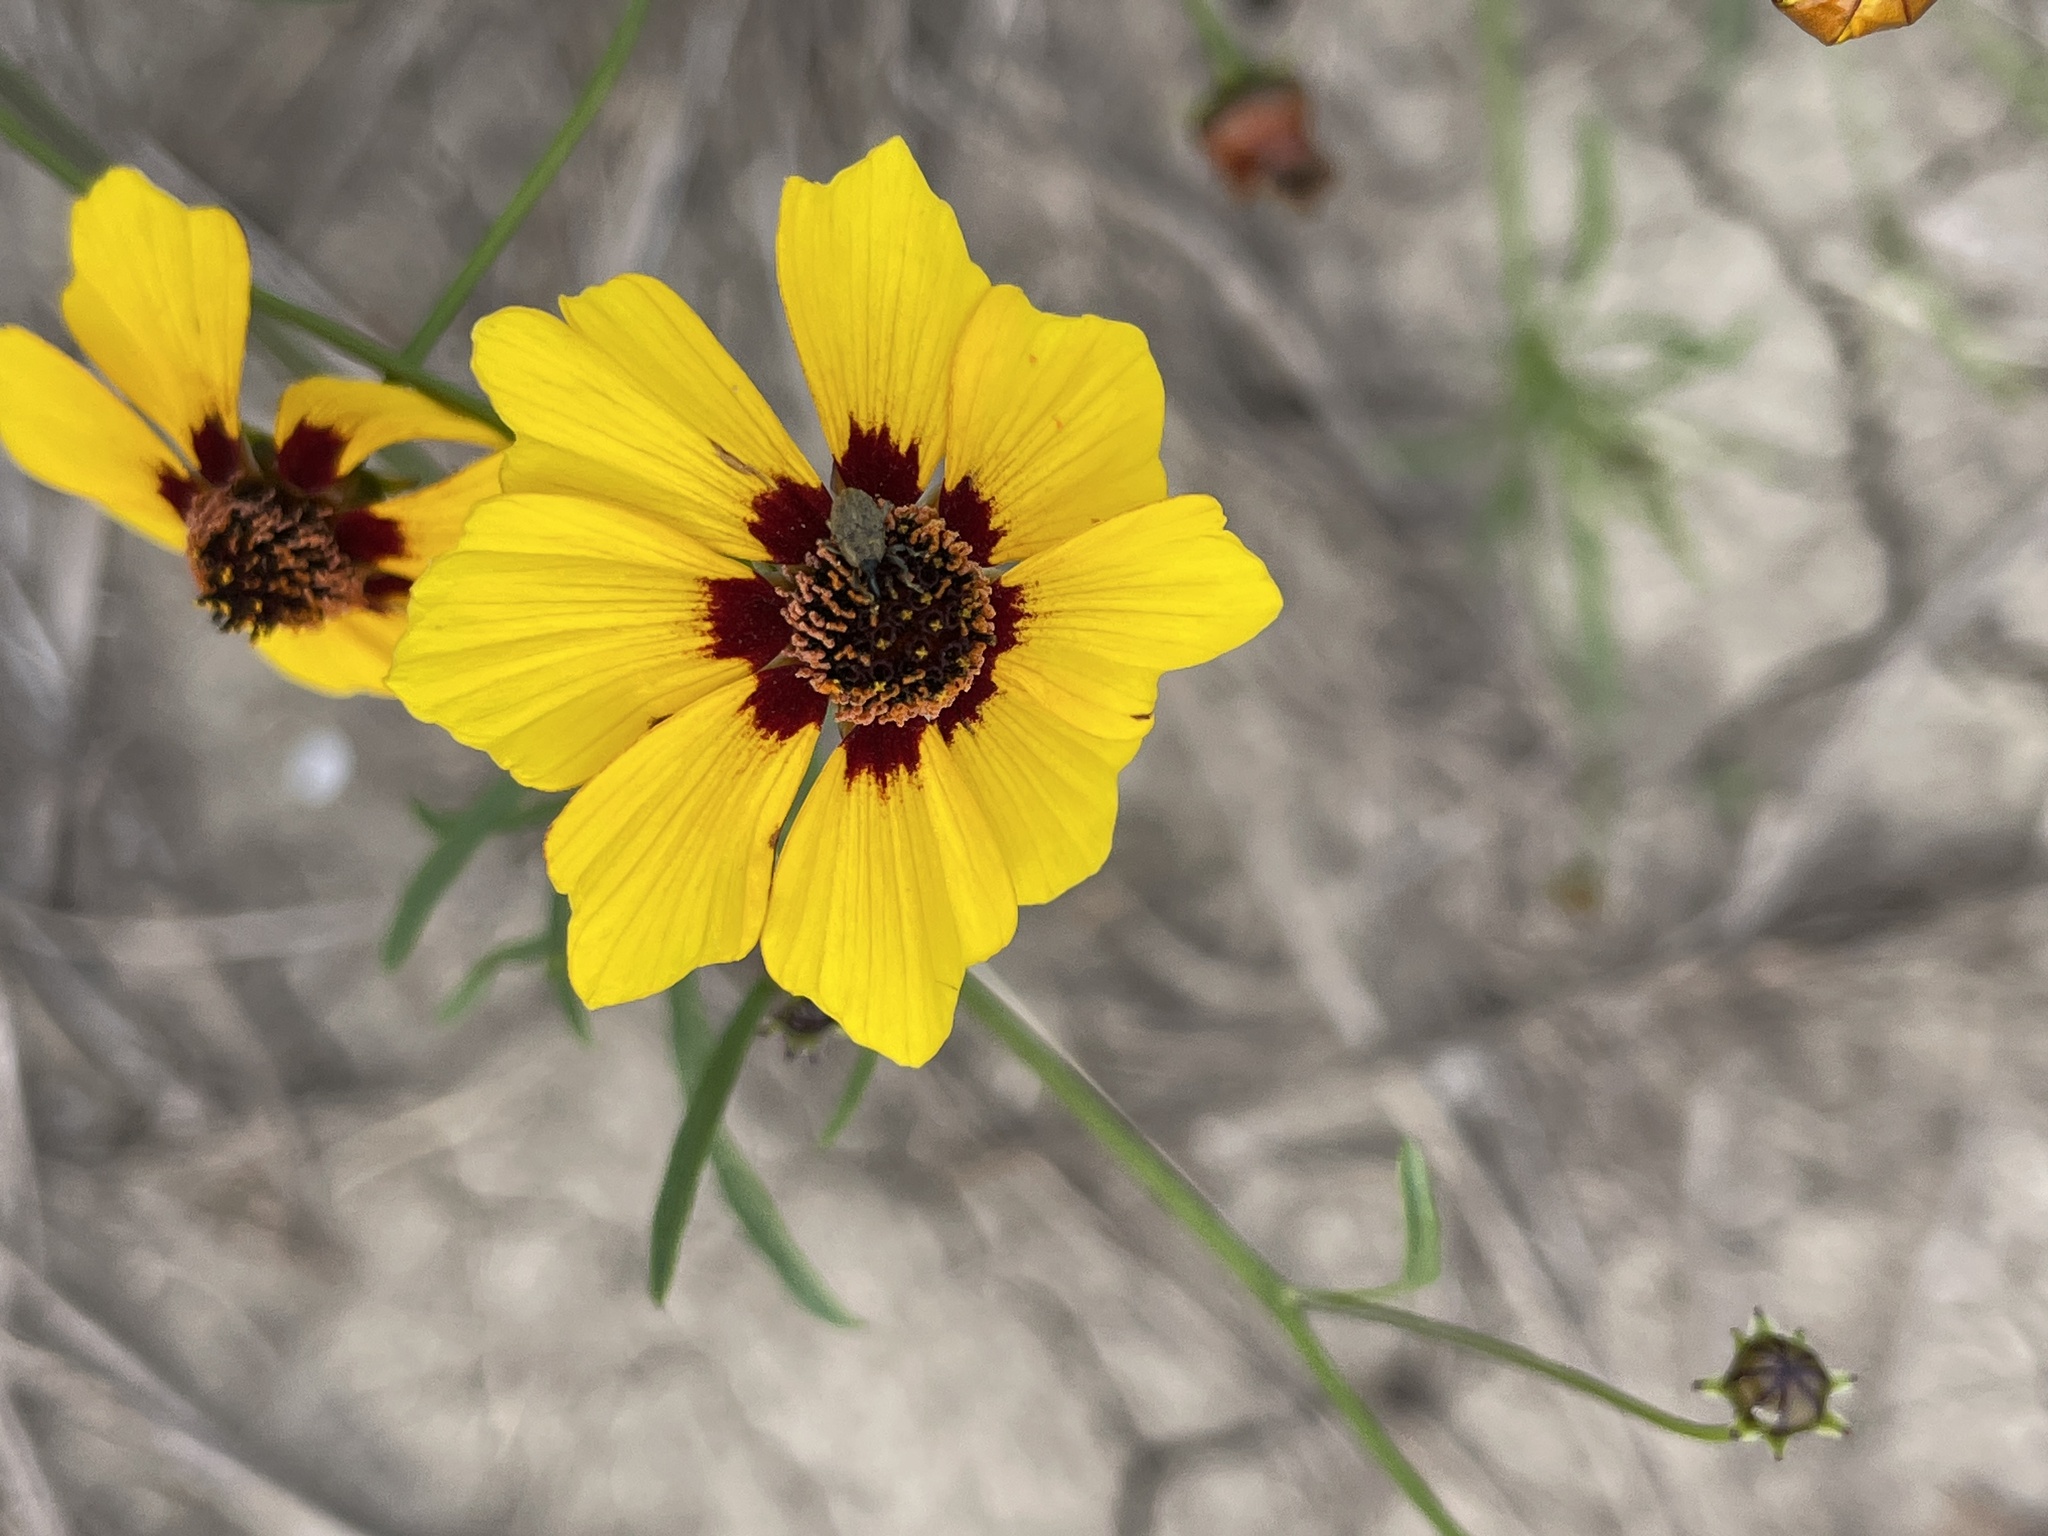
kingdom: Plantae
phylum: Tracheophyta
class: Magnoliopsida
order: Asterales
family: Asteraceae
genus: Coreopsis
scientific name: Coreopsis tinctoria
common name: Garden tickseed
